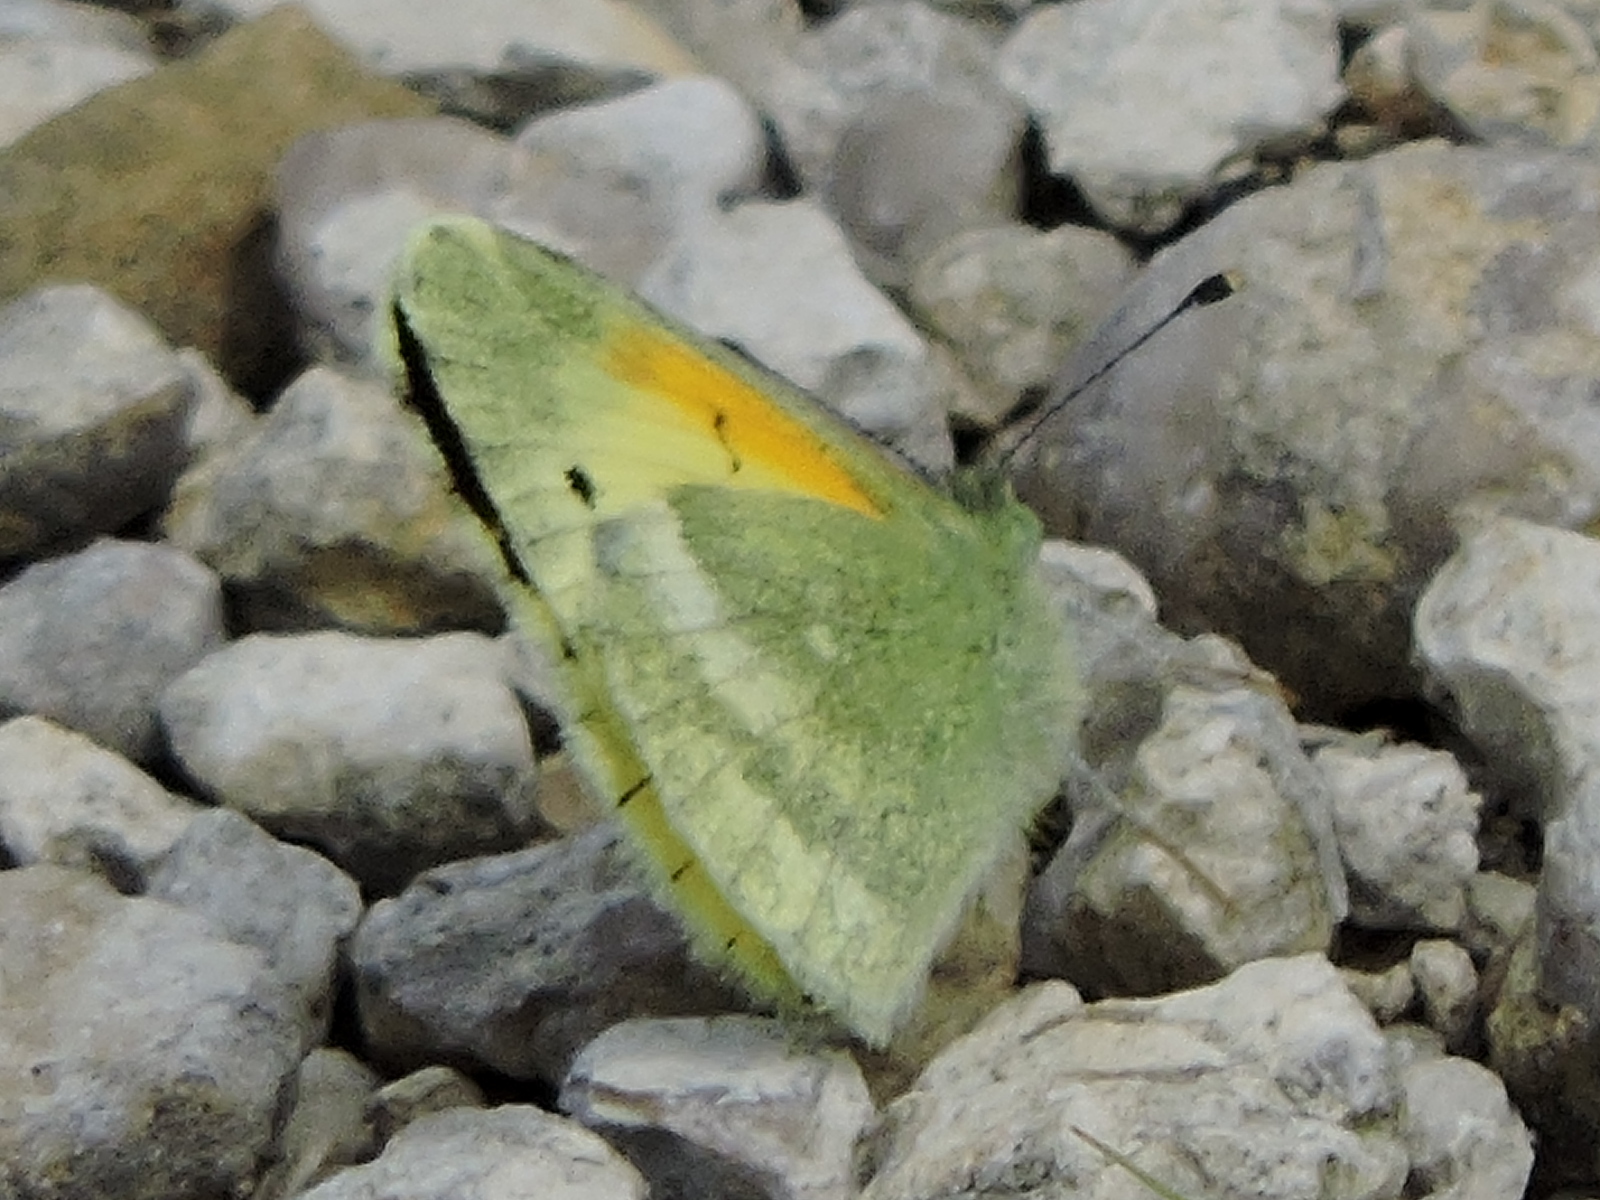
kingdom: Animalia
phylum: Arthropoda
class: Insecta
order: Lepidoptera
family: Pieridae
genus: Nathalis
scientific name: Nathalis iole
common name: Dainty sulphur
